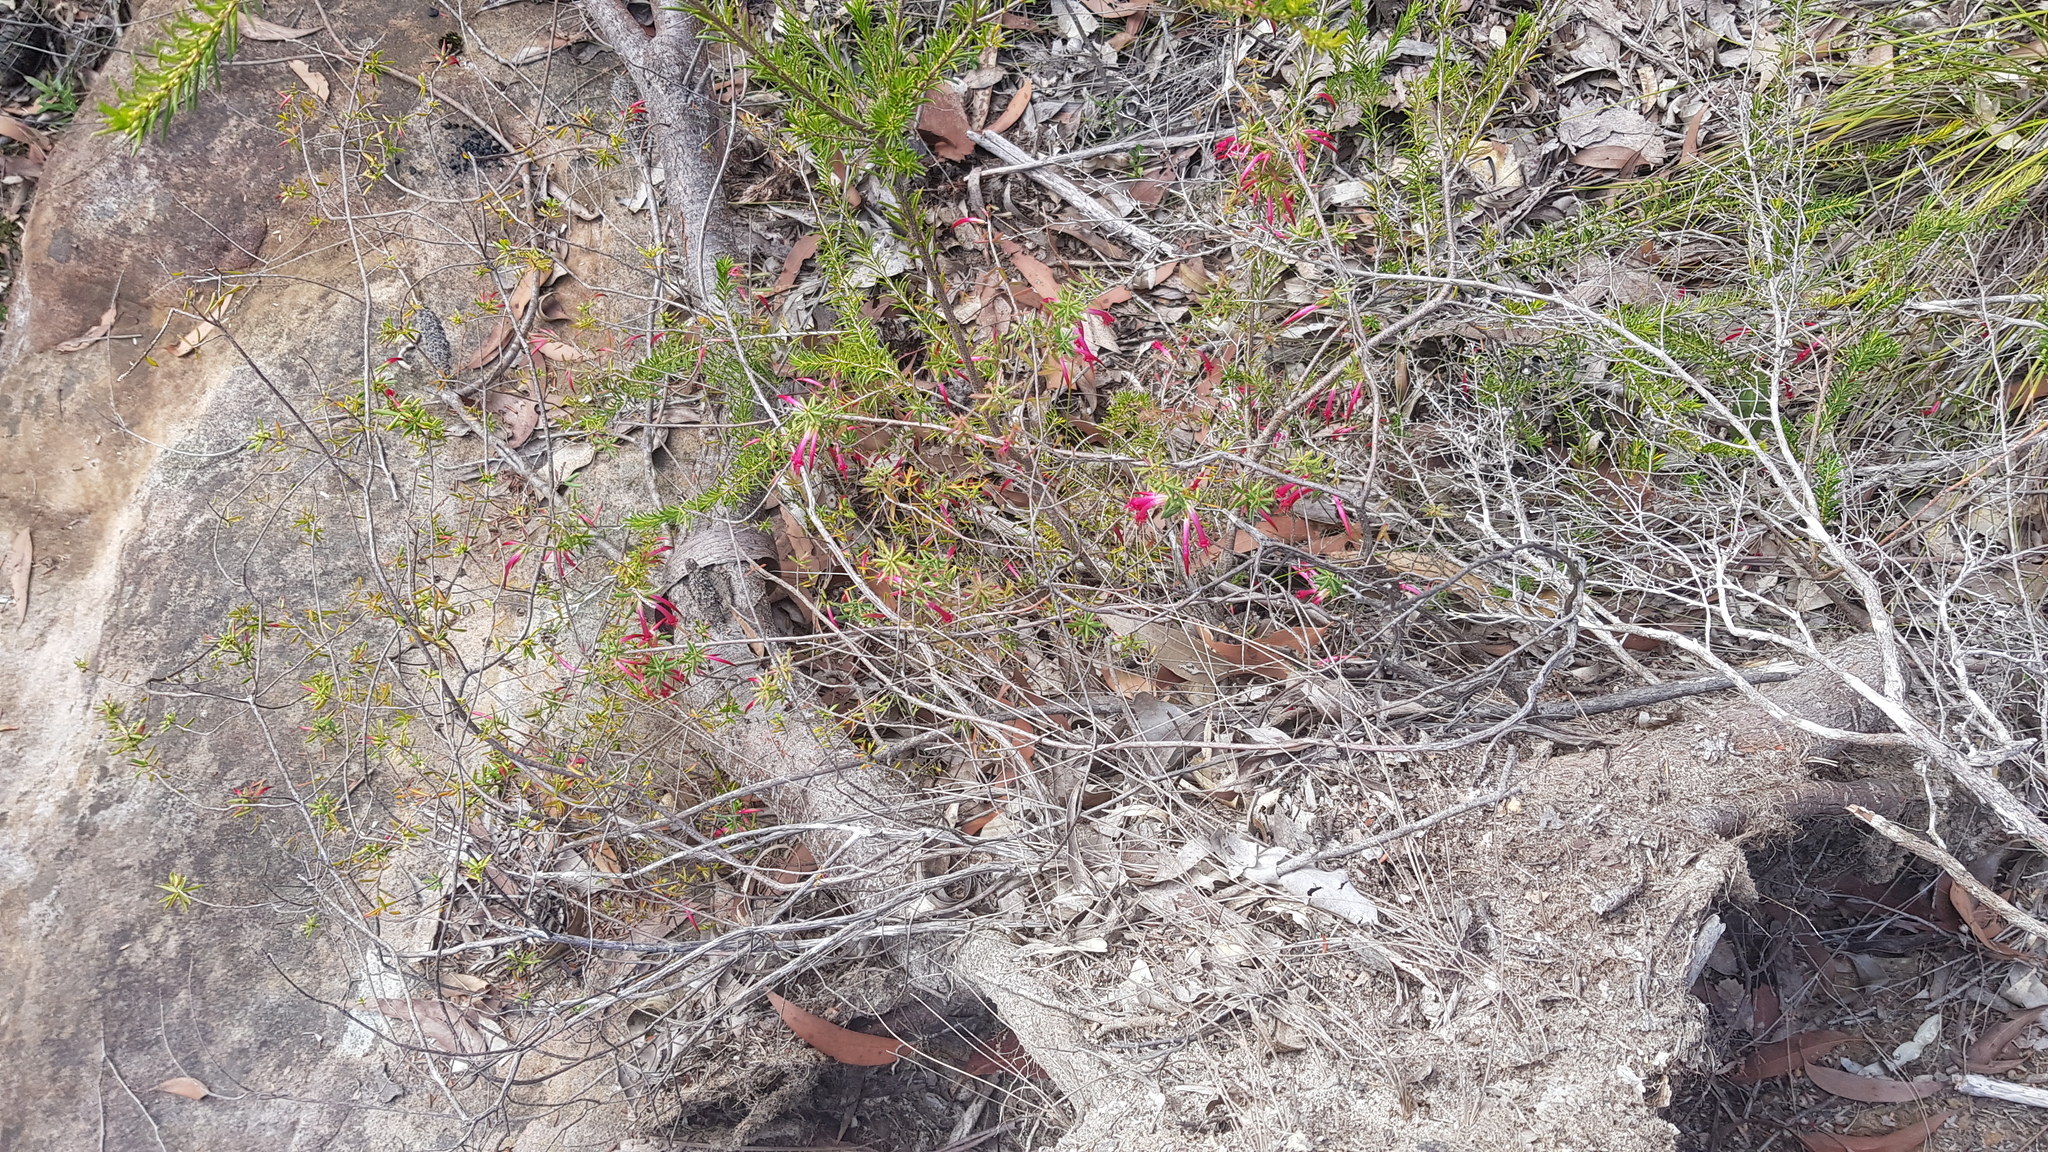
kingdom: Plantae
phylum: Tracheophyta
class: Magnoliopsida
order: Ericales
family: Ericaceae
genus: Styphelia
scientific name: Styphelia tubiflora
